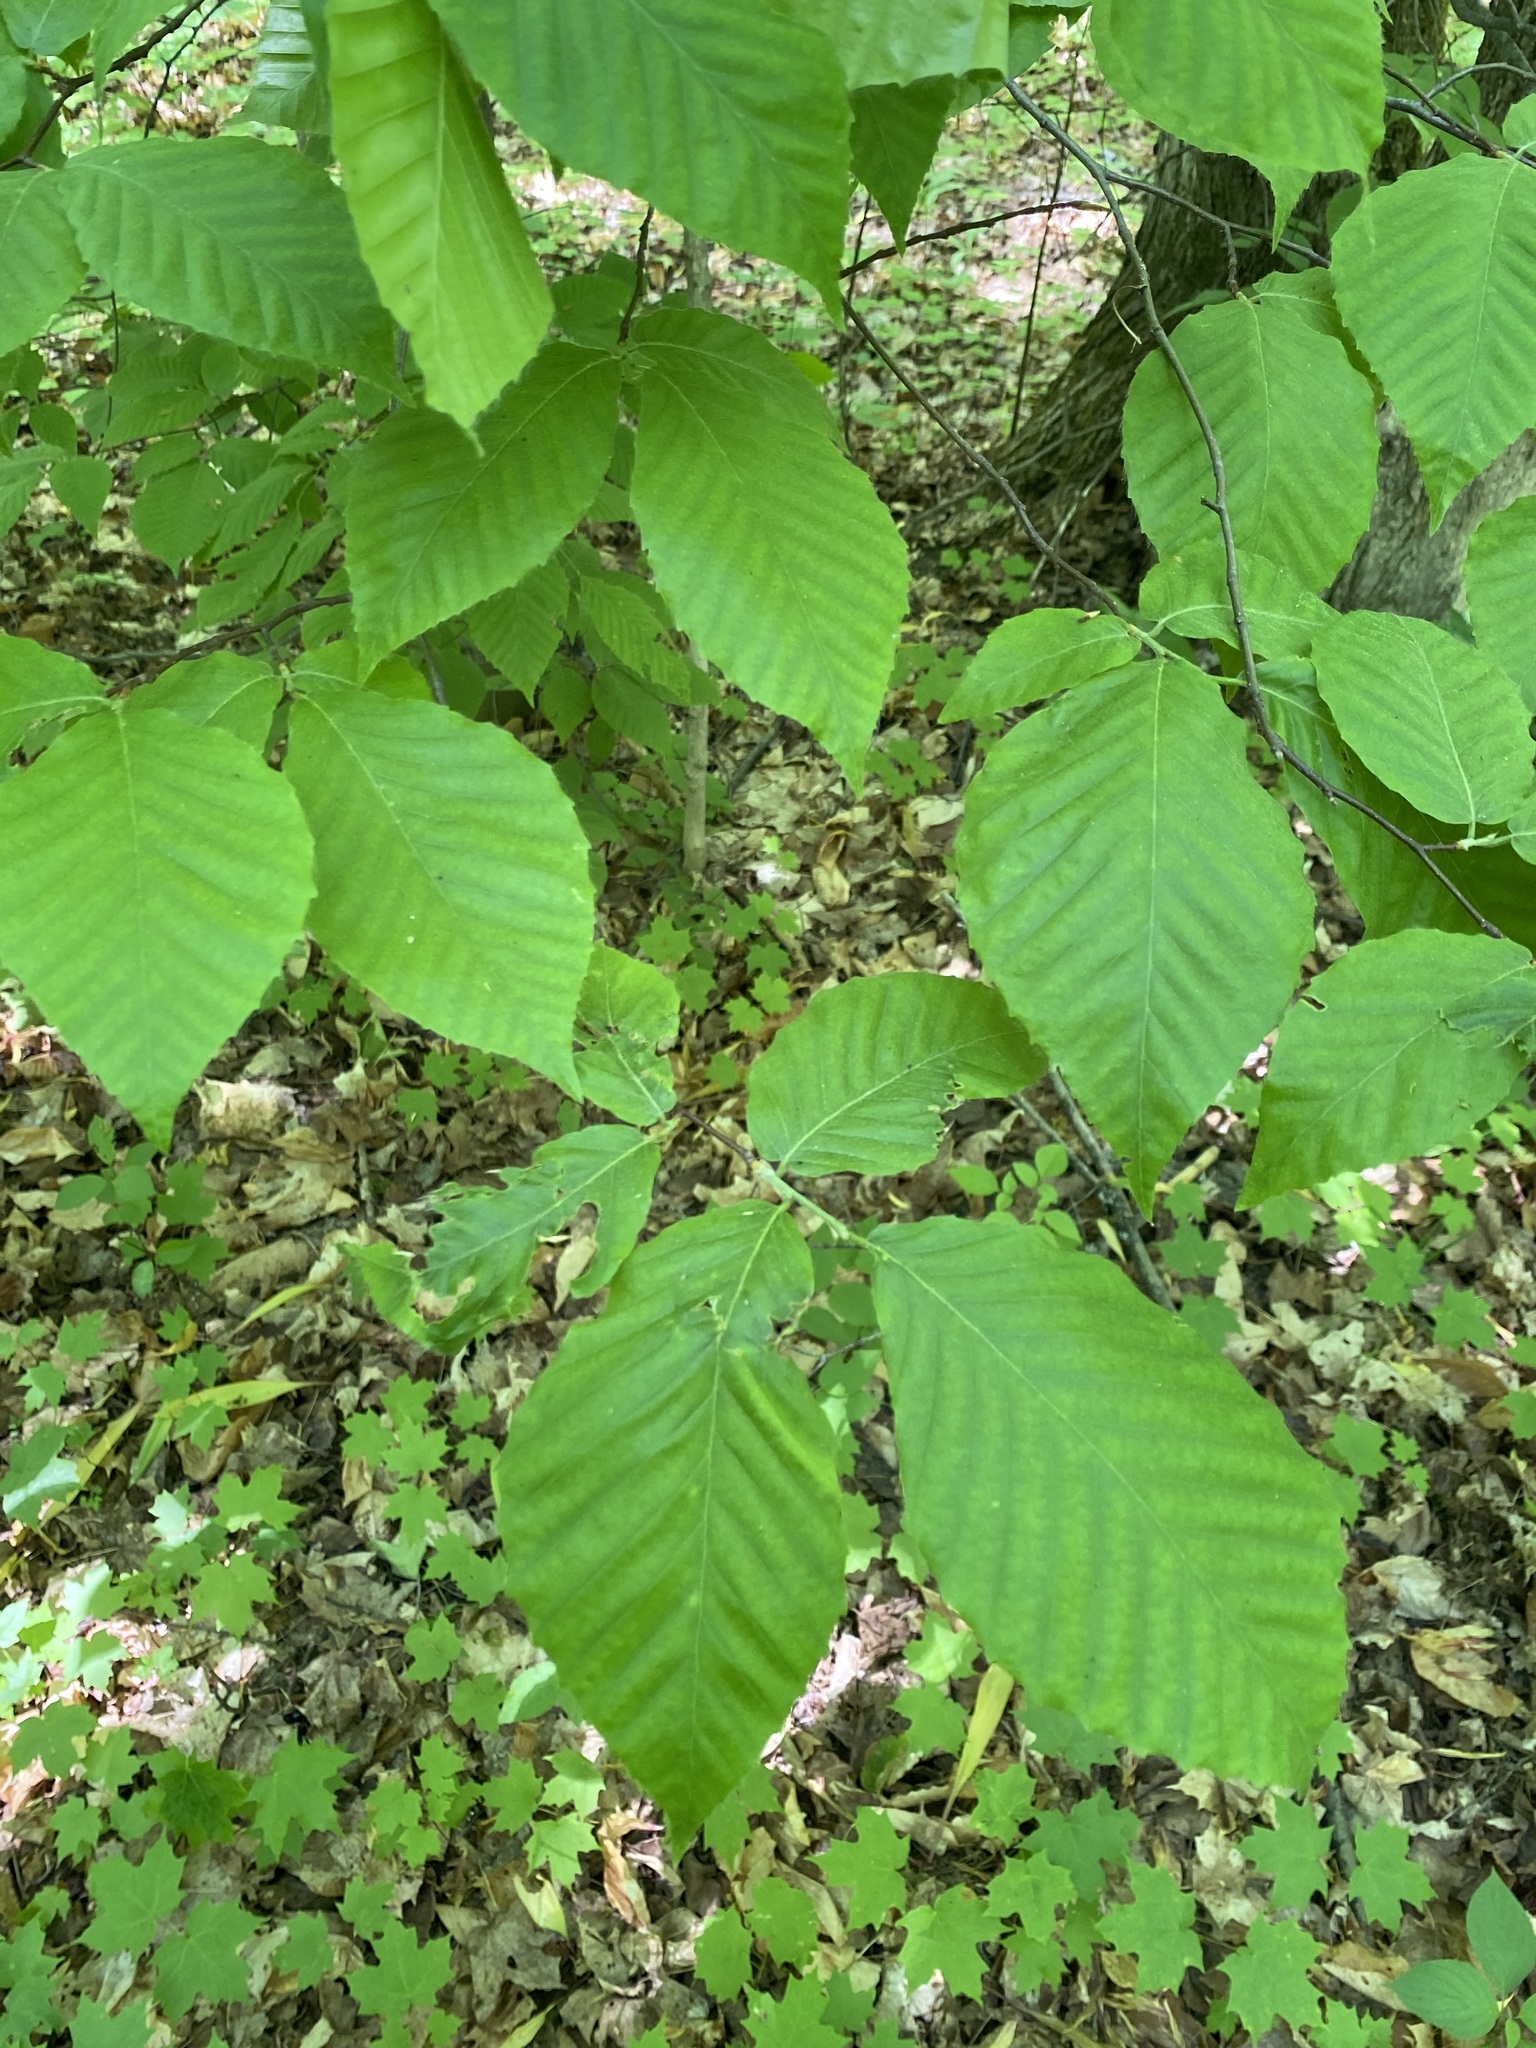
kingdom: Plantae
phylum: Tracheophyta
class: Magnoliopsida
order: Fagales
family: Fagaceae
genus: Fagus
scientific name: Fagus grandifolia
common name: American beech
